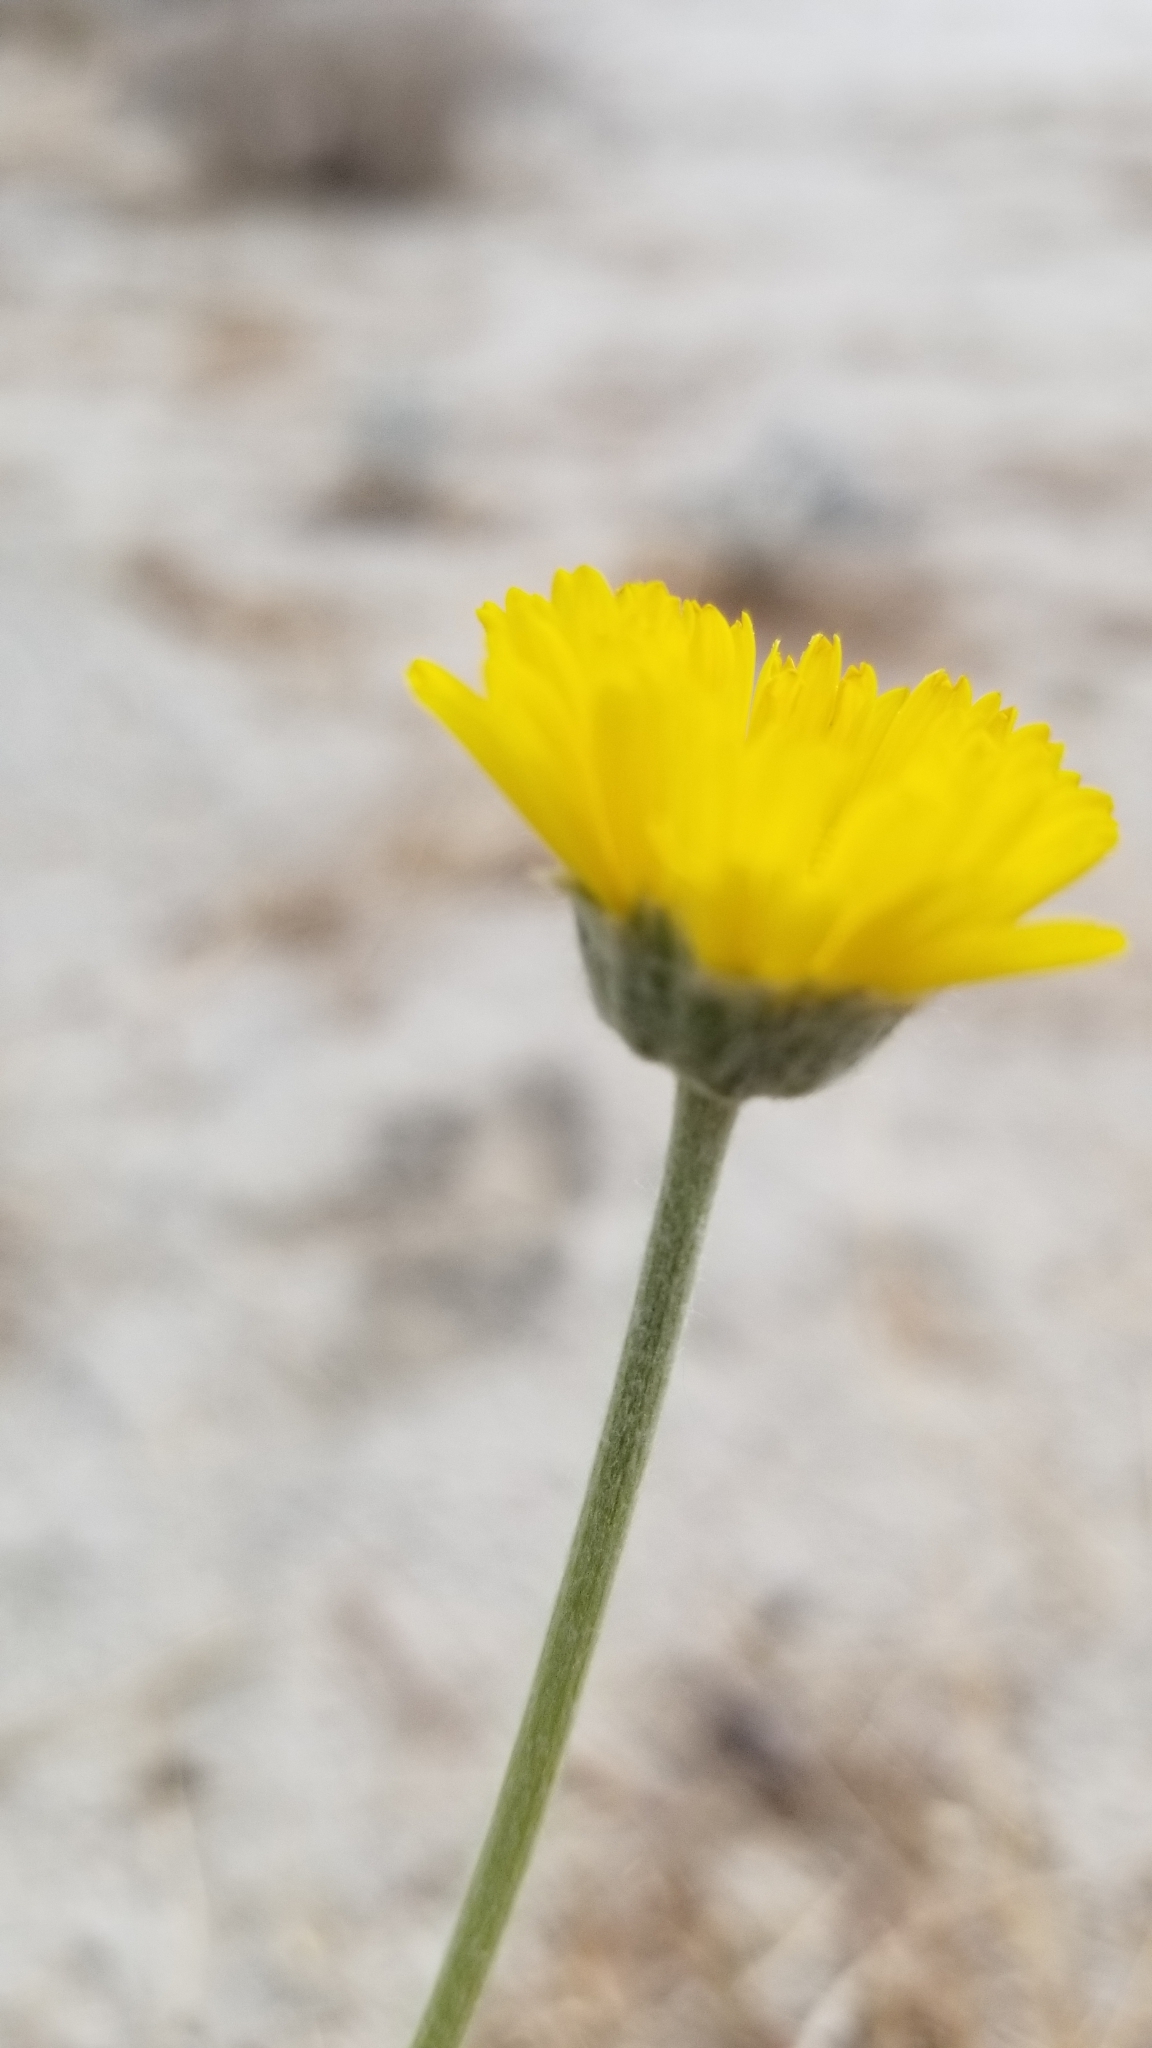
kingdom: Plantae
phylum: Tracheophyta
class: Magnoliopsida
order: Asterales
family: Asteraceae
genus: Baileya
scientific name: Baileya multiradiata
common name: Desert-marigold
